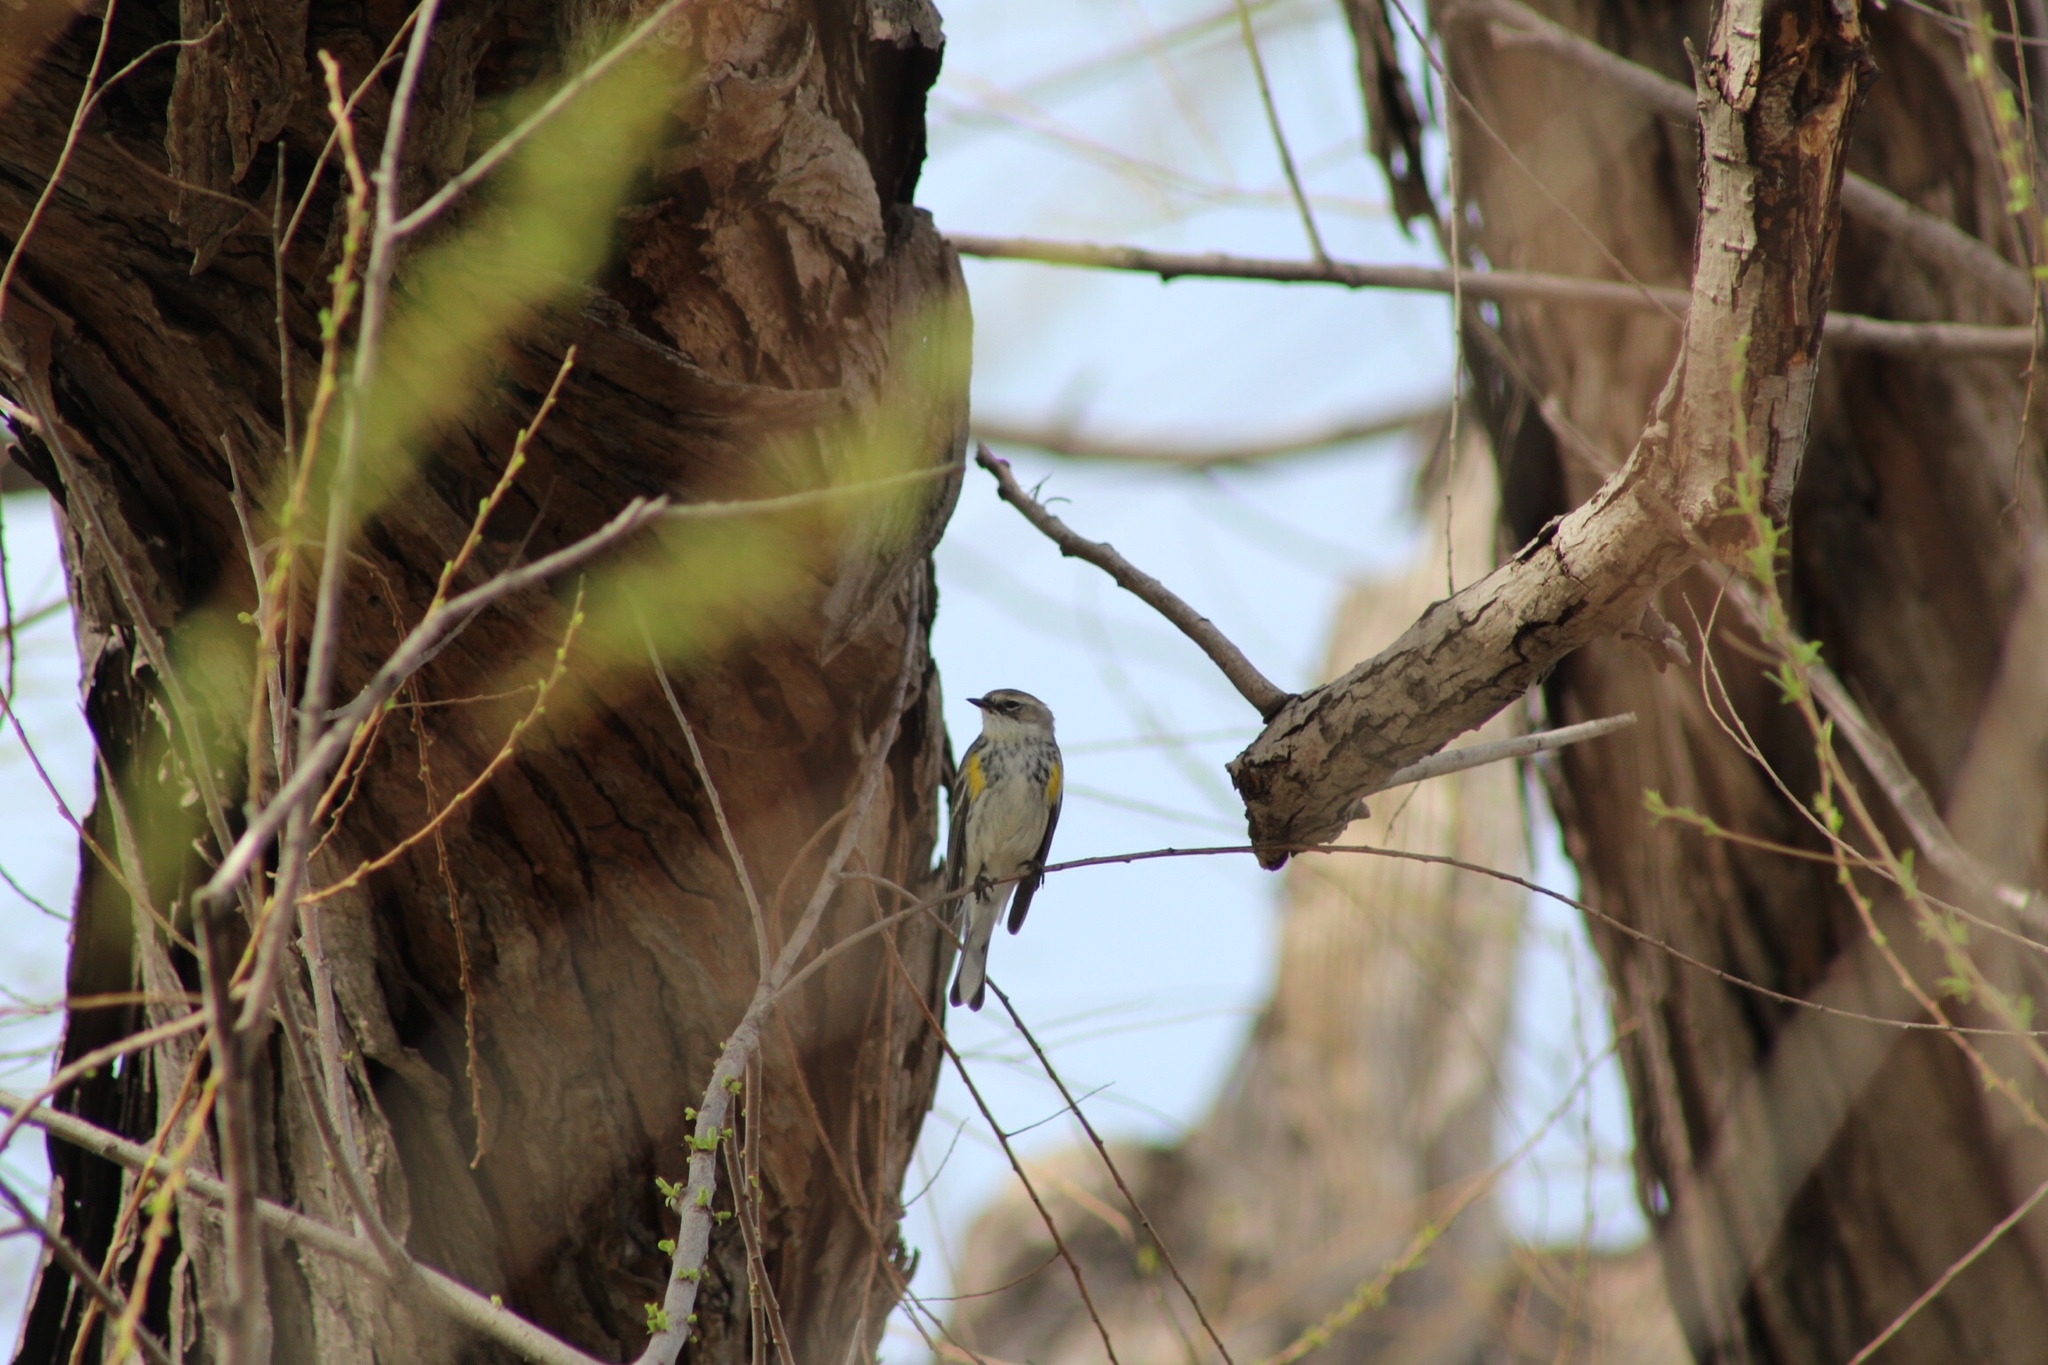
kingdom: Animalia
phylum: Chordata
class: Aves
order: Passeriformes
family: Parulidae
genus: Setophaga
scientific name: Setophaga coronata
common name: Myrtle warbler
